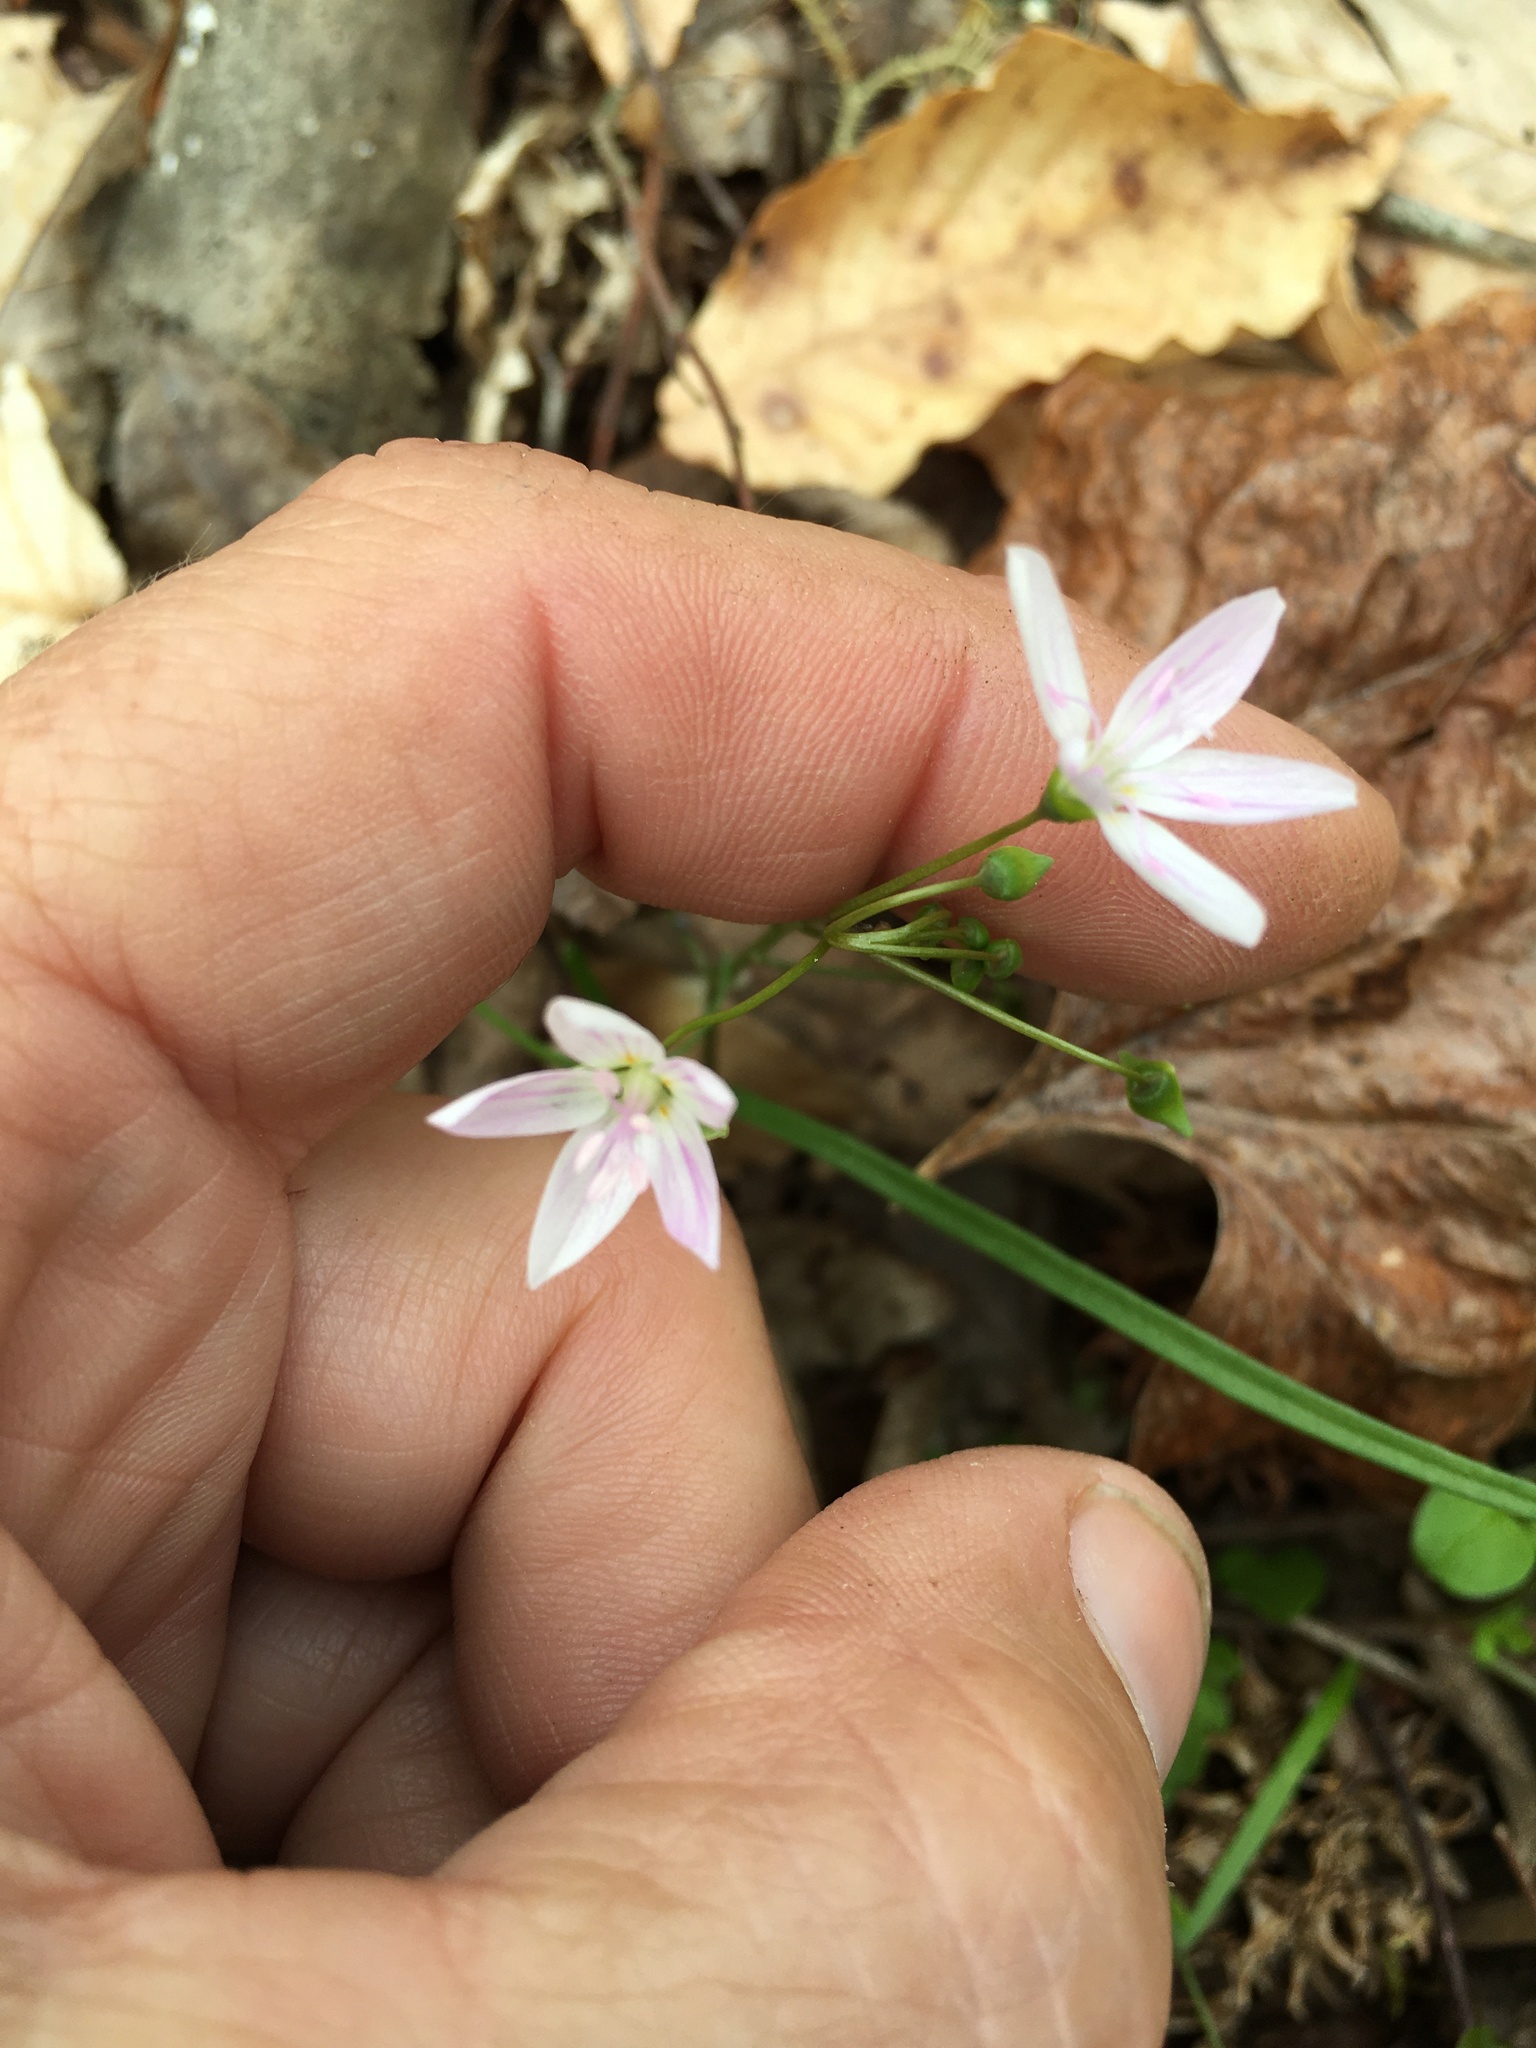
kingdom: Plantae
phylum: Tracheophyta
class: Magnoliopsida
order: Caryophyllales
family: Montiaceae
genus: Claytonia
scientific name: Claytonia virginica
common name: Virginia springbeauty
